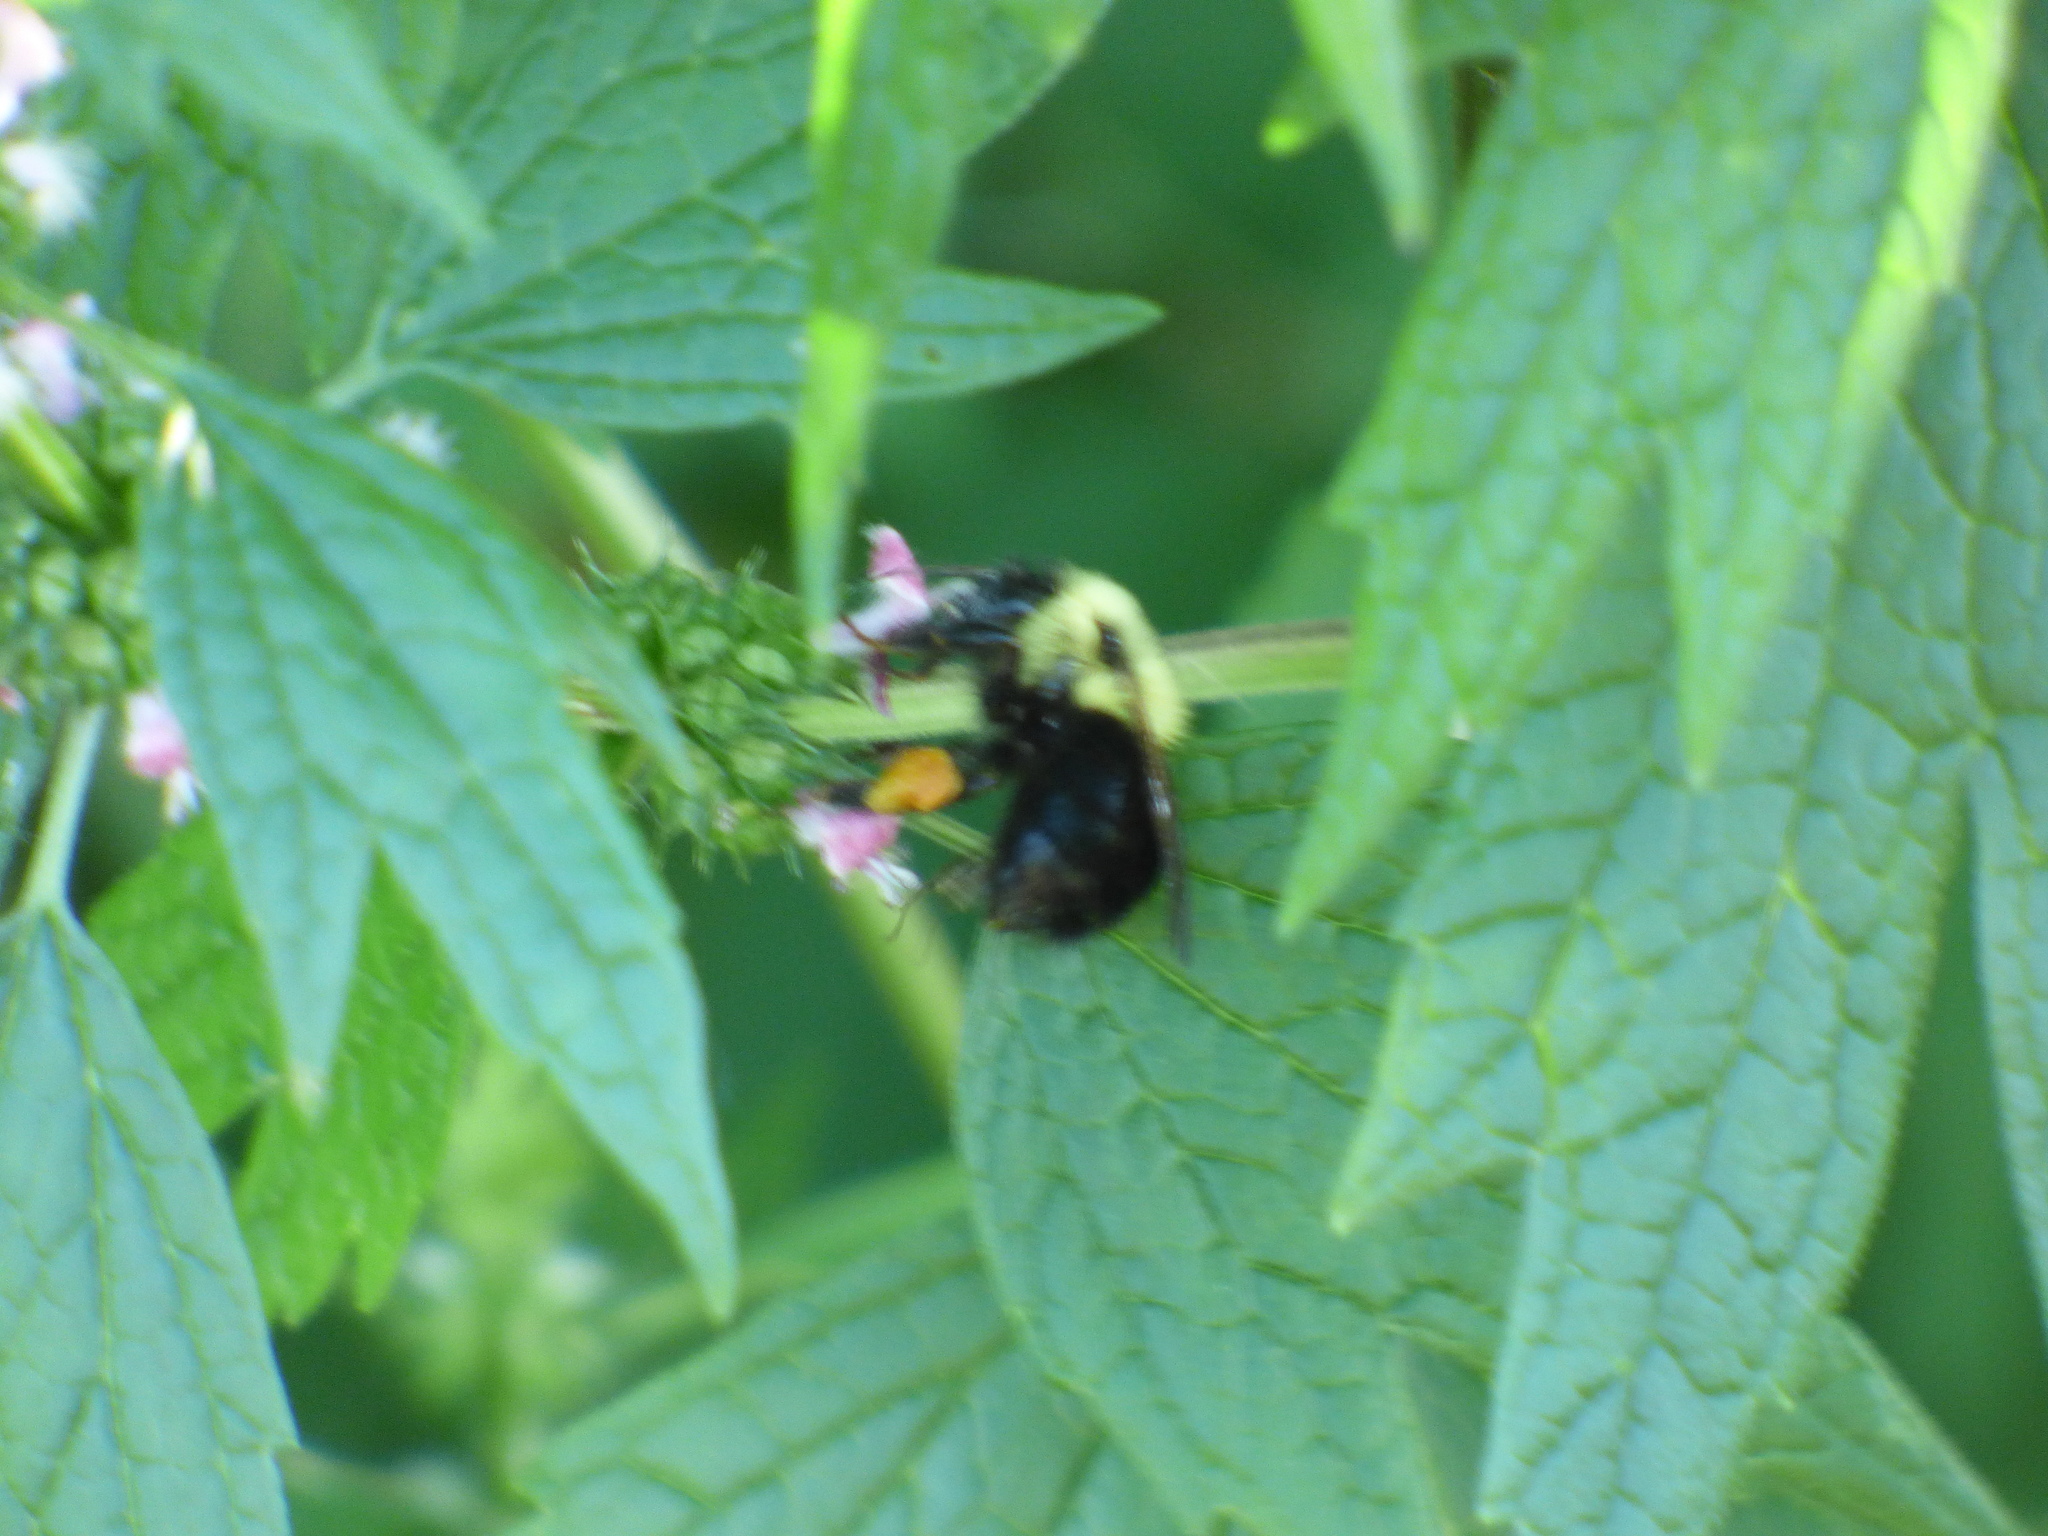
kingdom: Animalia
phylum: Arthropoda
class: Insecta
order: Hymenoptera
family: Apidae
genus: Bombus
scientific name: Bombus bimaculatus
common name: Two-spotted bumble bee
